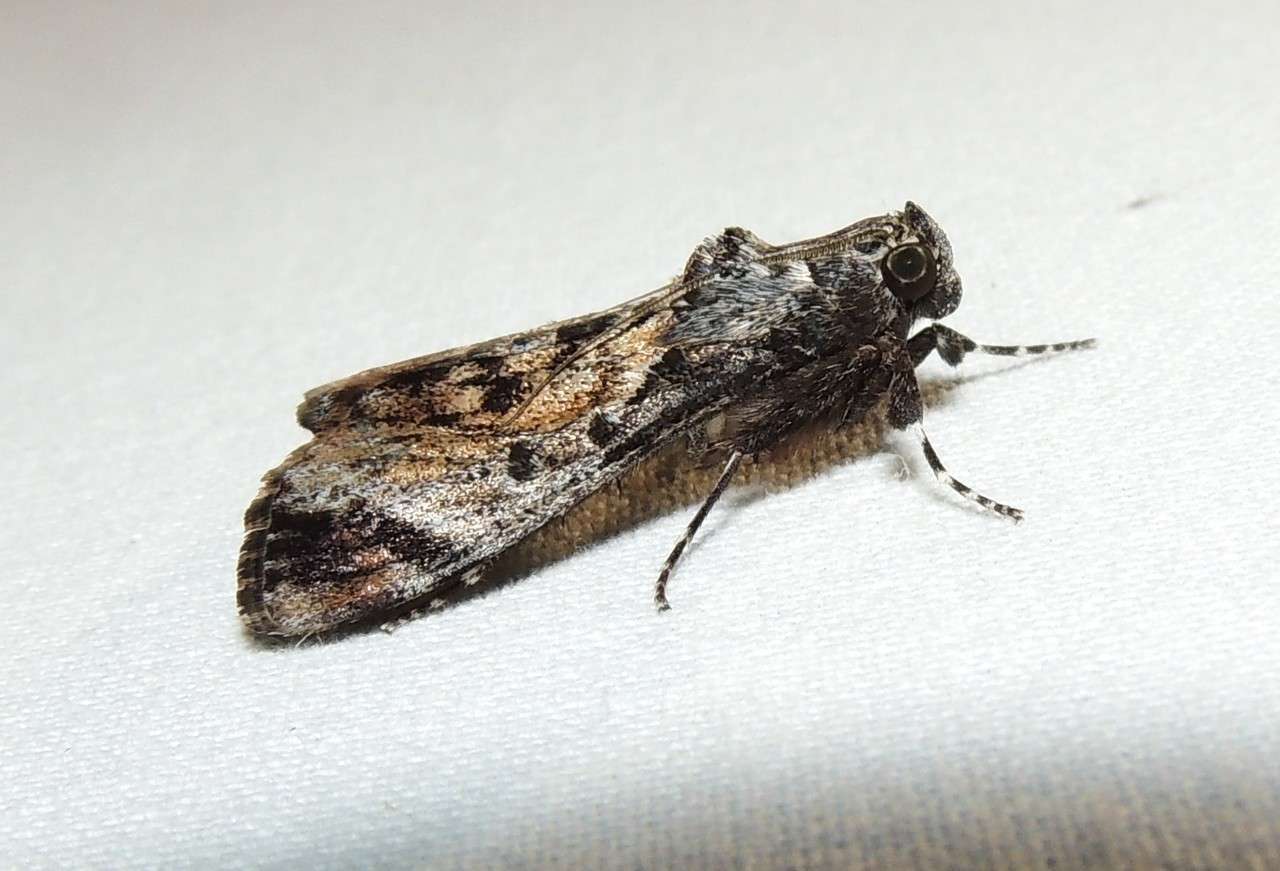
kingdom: Animalia
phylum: Arthropoda
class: Insecta
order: Lepidoptera
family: Pyralidae
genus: Salma
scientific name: Salma pyrastis
